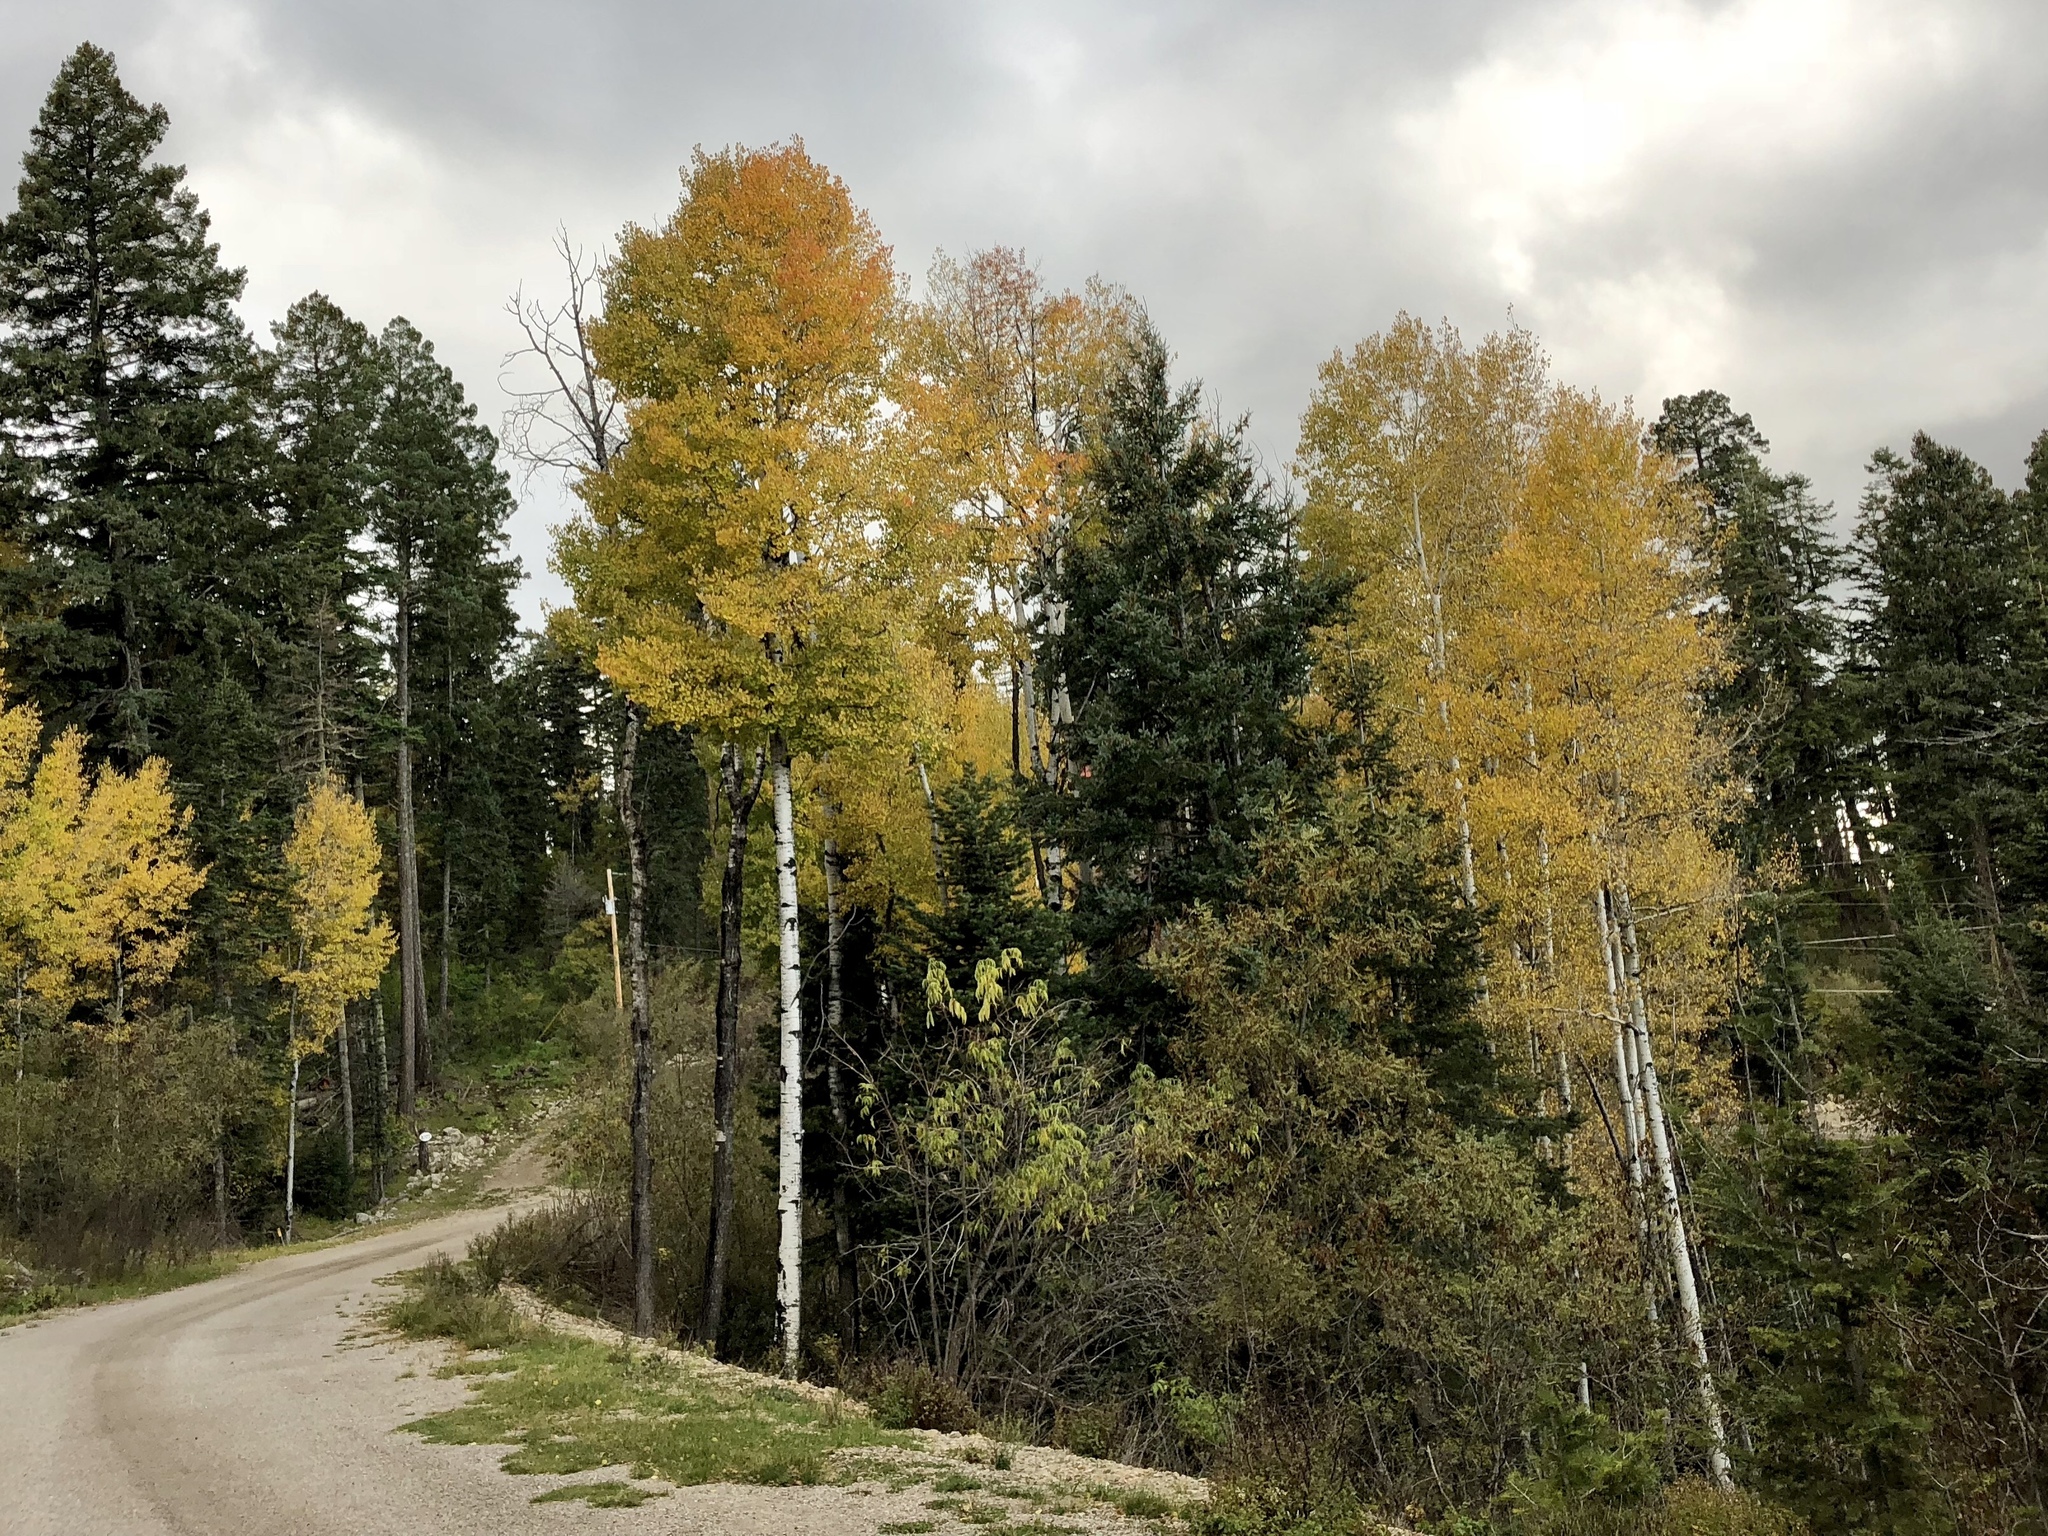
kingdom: Plantae
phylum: Tracheophyta
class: Magnoliopsida
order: Malpighiales
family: Salicaceae
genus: Populus
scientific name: Populus tremuloides
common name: Quaking aspen
